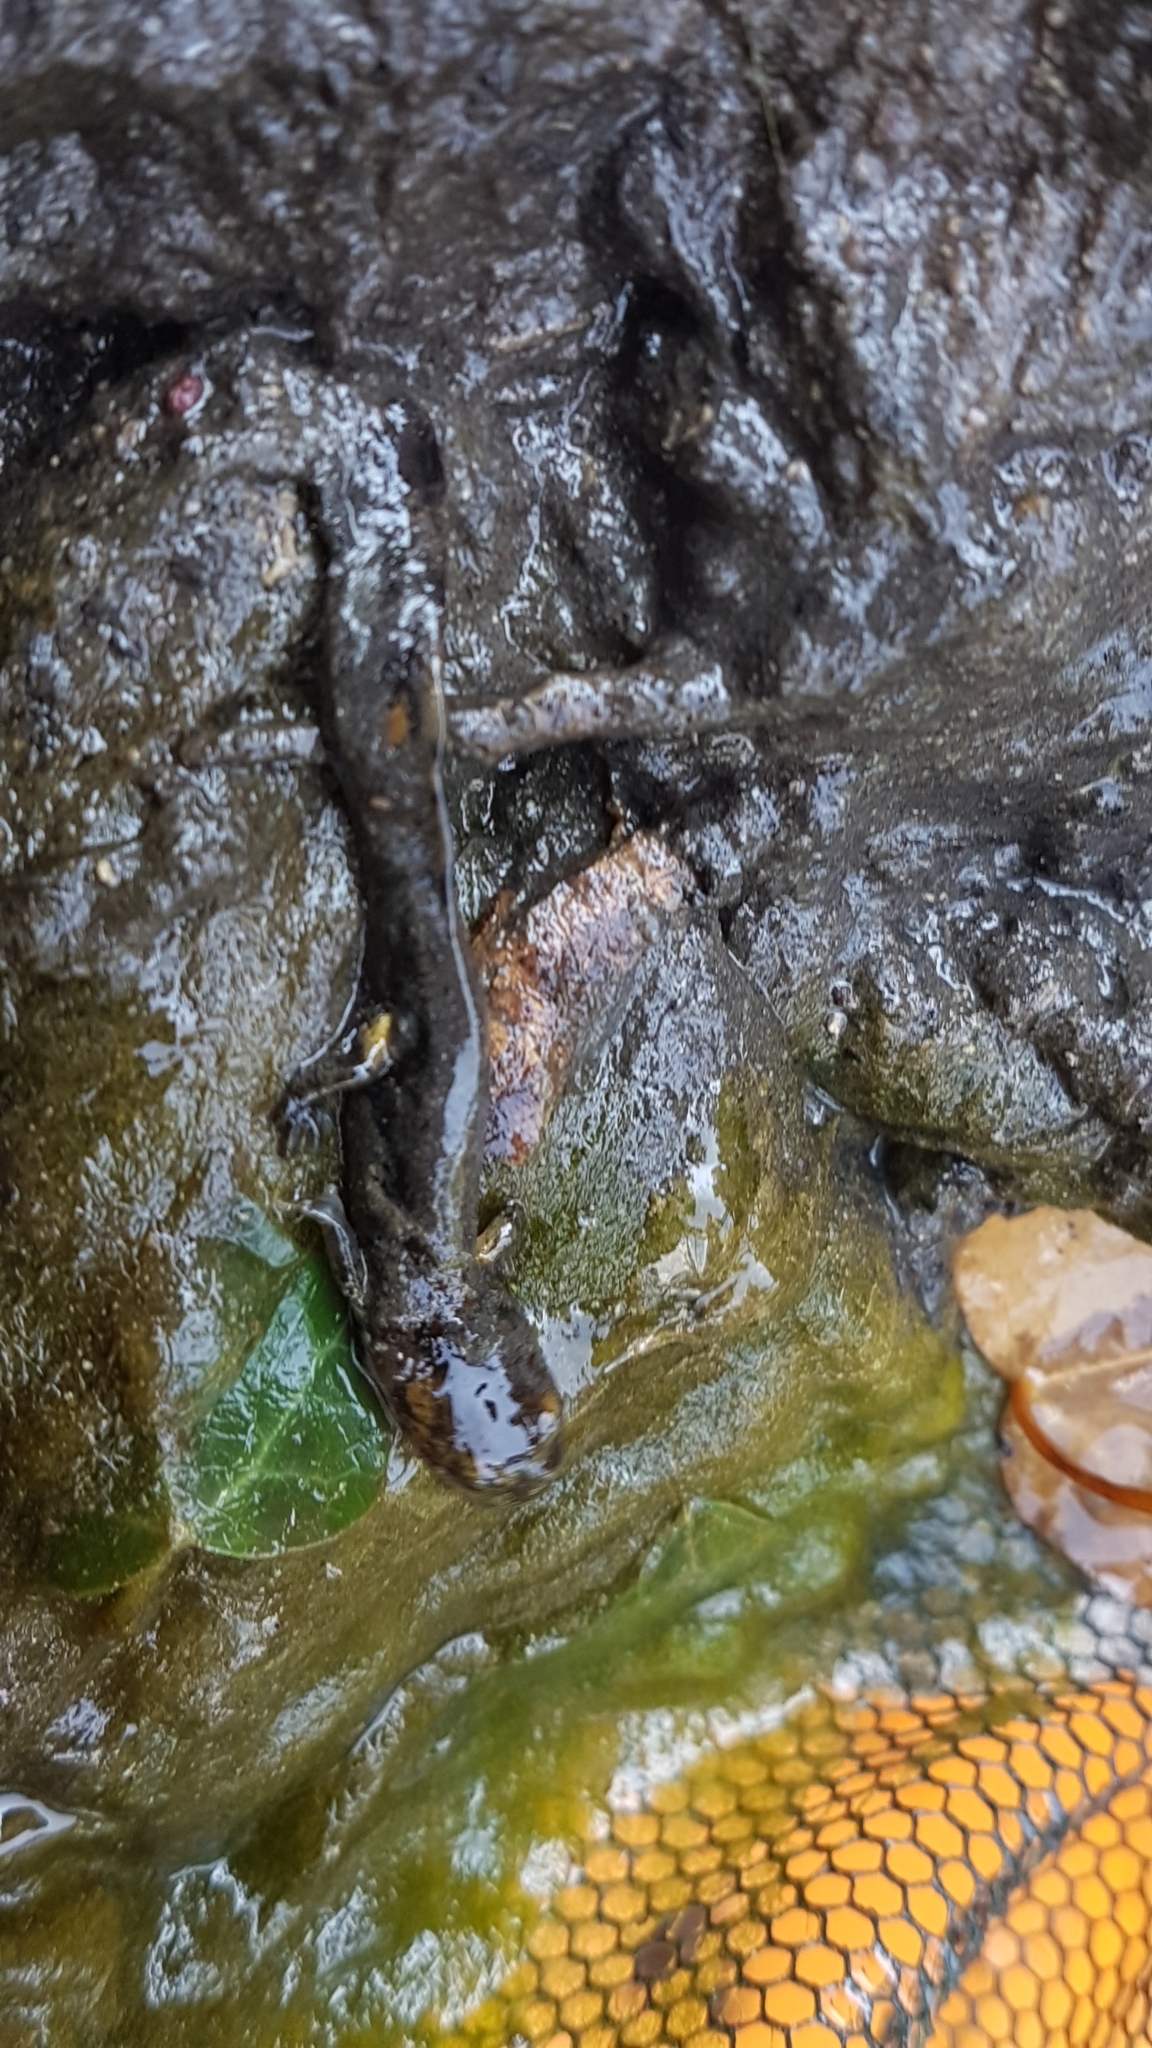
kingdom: Animalia
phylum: Chordata
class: Amphibia
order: Caudata
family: Salamandridae
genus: Salamandra
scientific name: Salamandra salamandra
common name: Fire salamander
